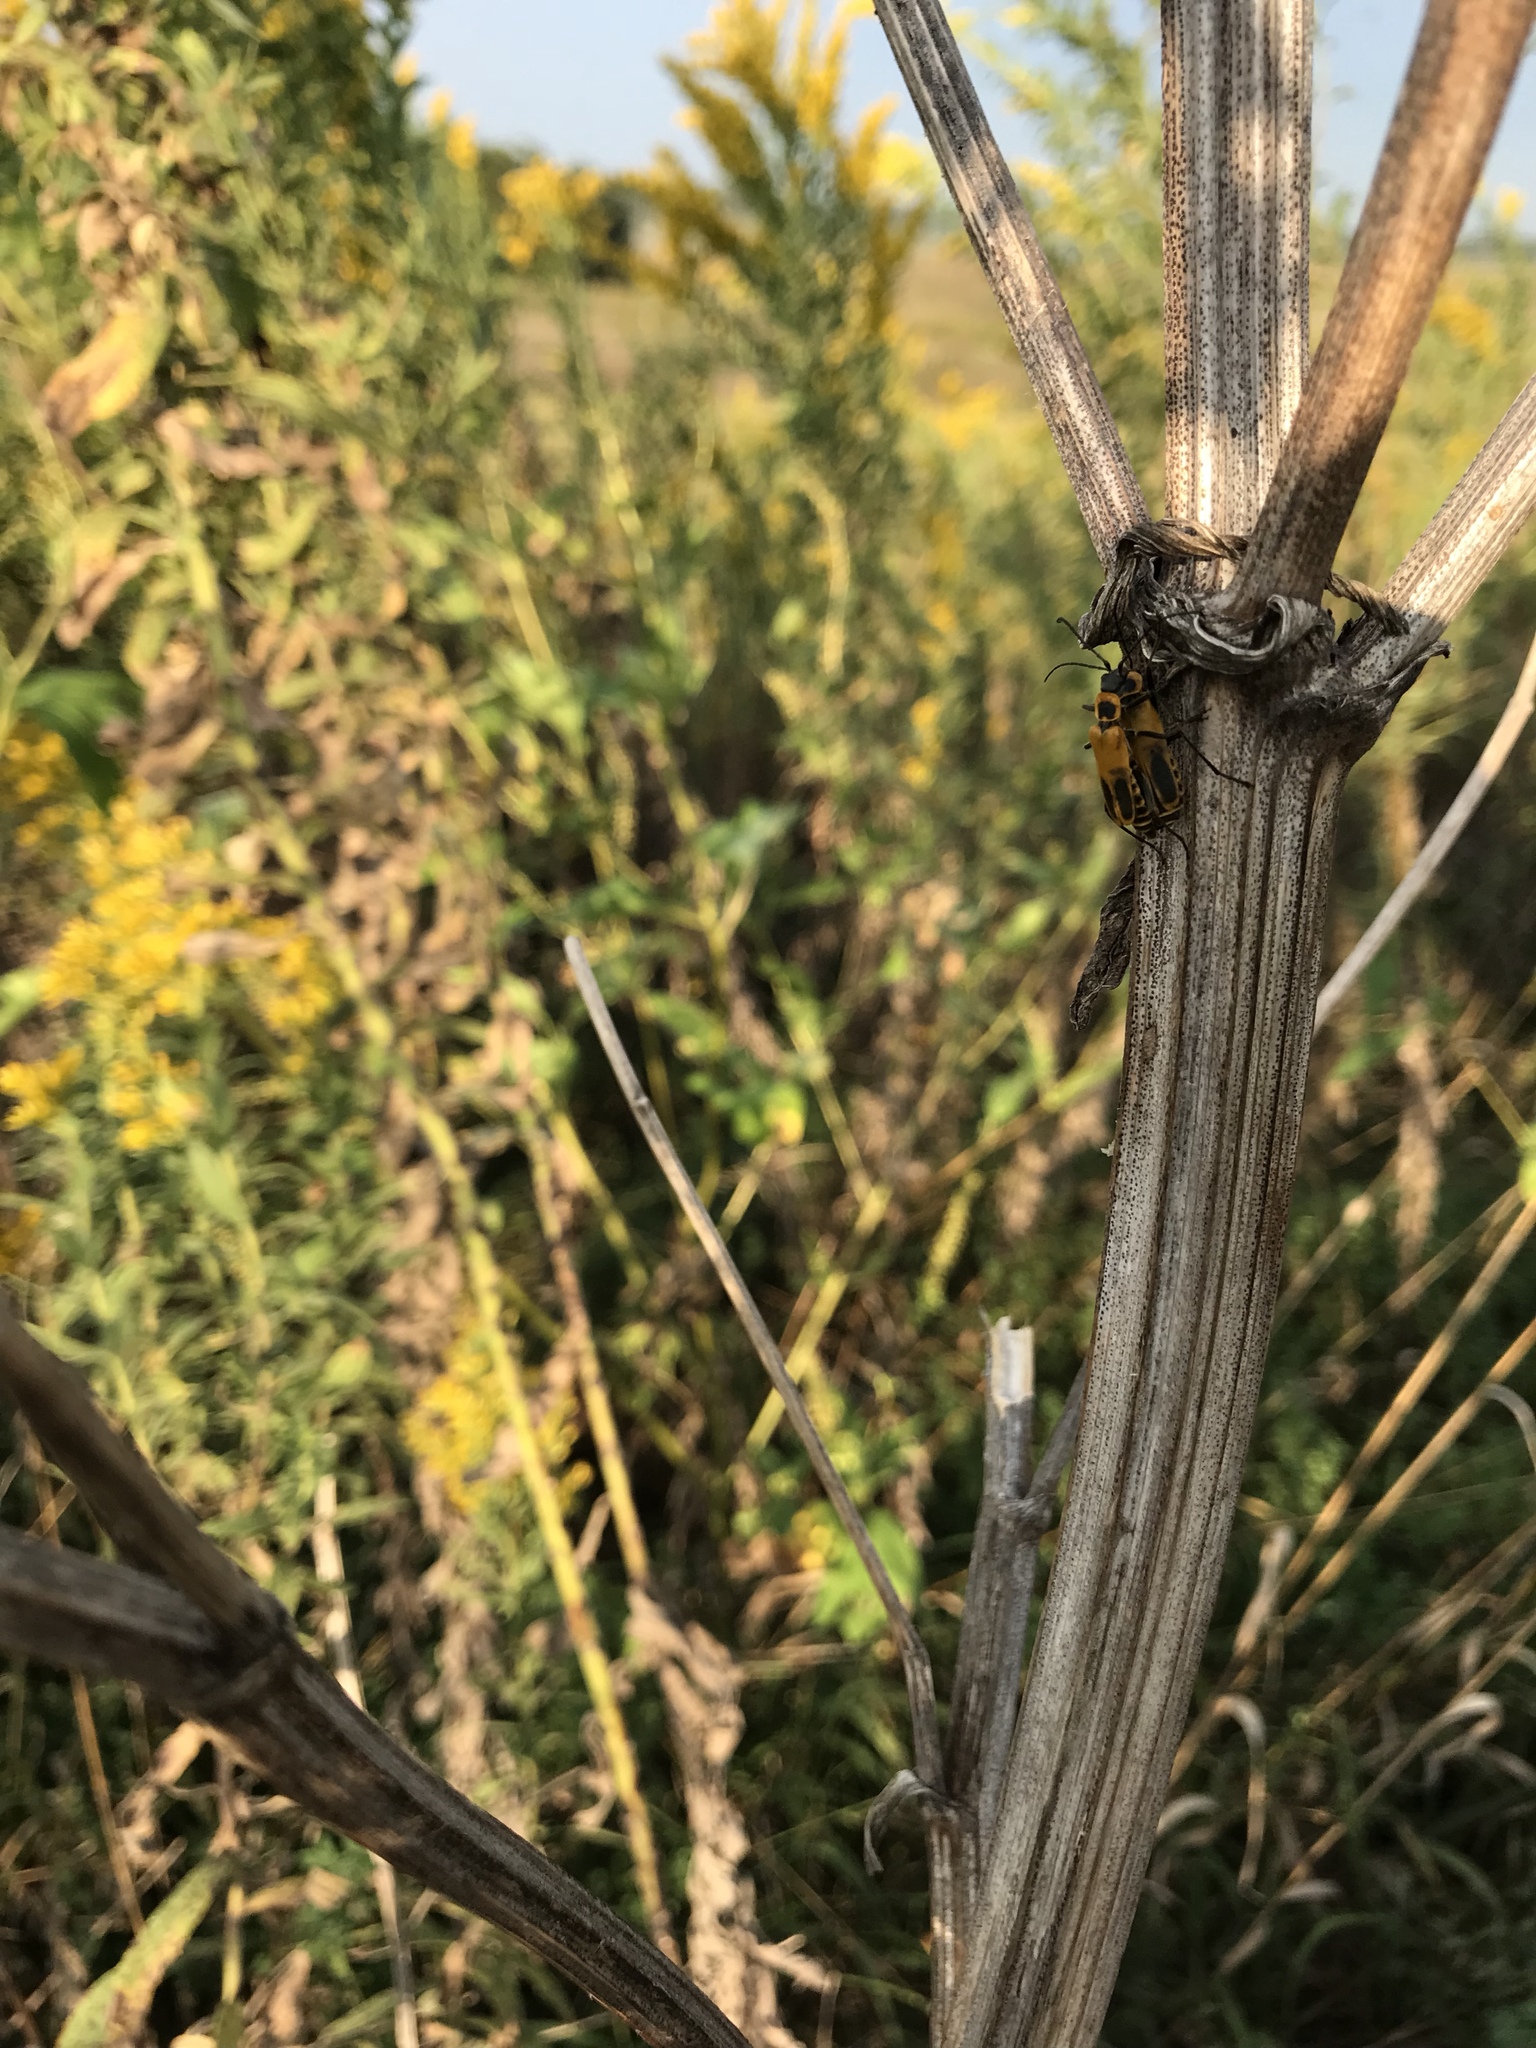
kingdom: Animalia
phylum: Arthropoda
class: Insecta
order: Coleoptera
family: Cantharidae
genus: Chauliognathus
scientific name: Chauliognathus pensylvanicus
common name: Goldenrod soldier beetle
